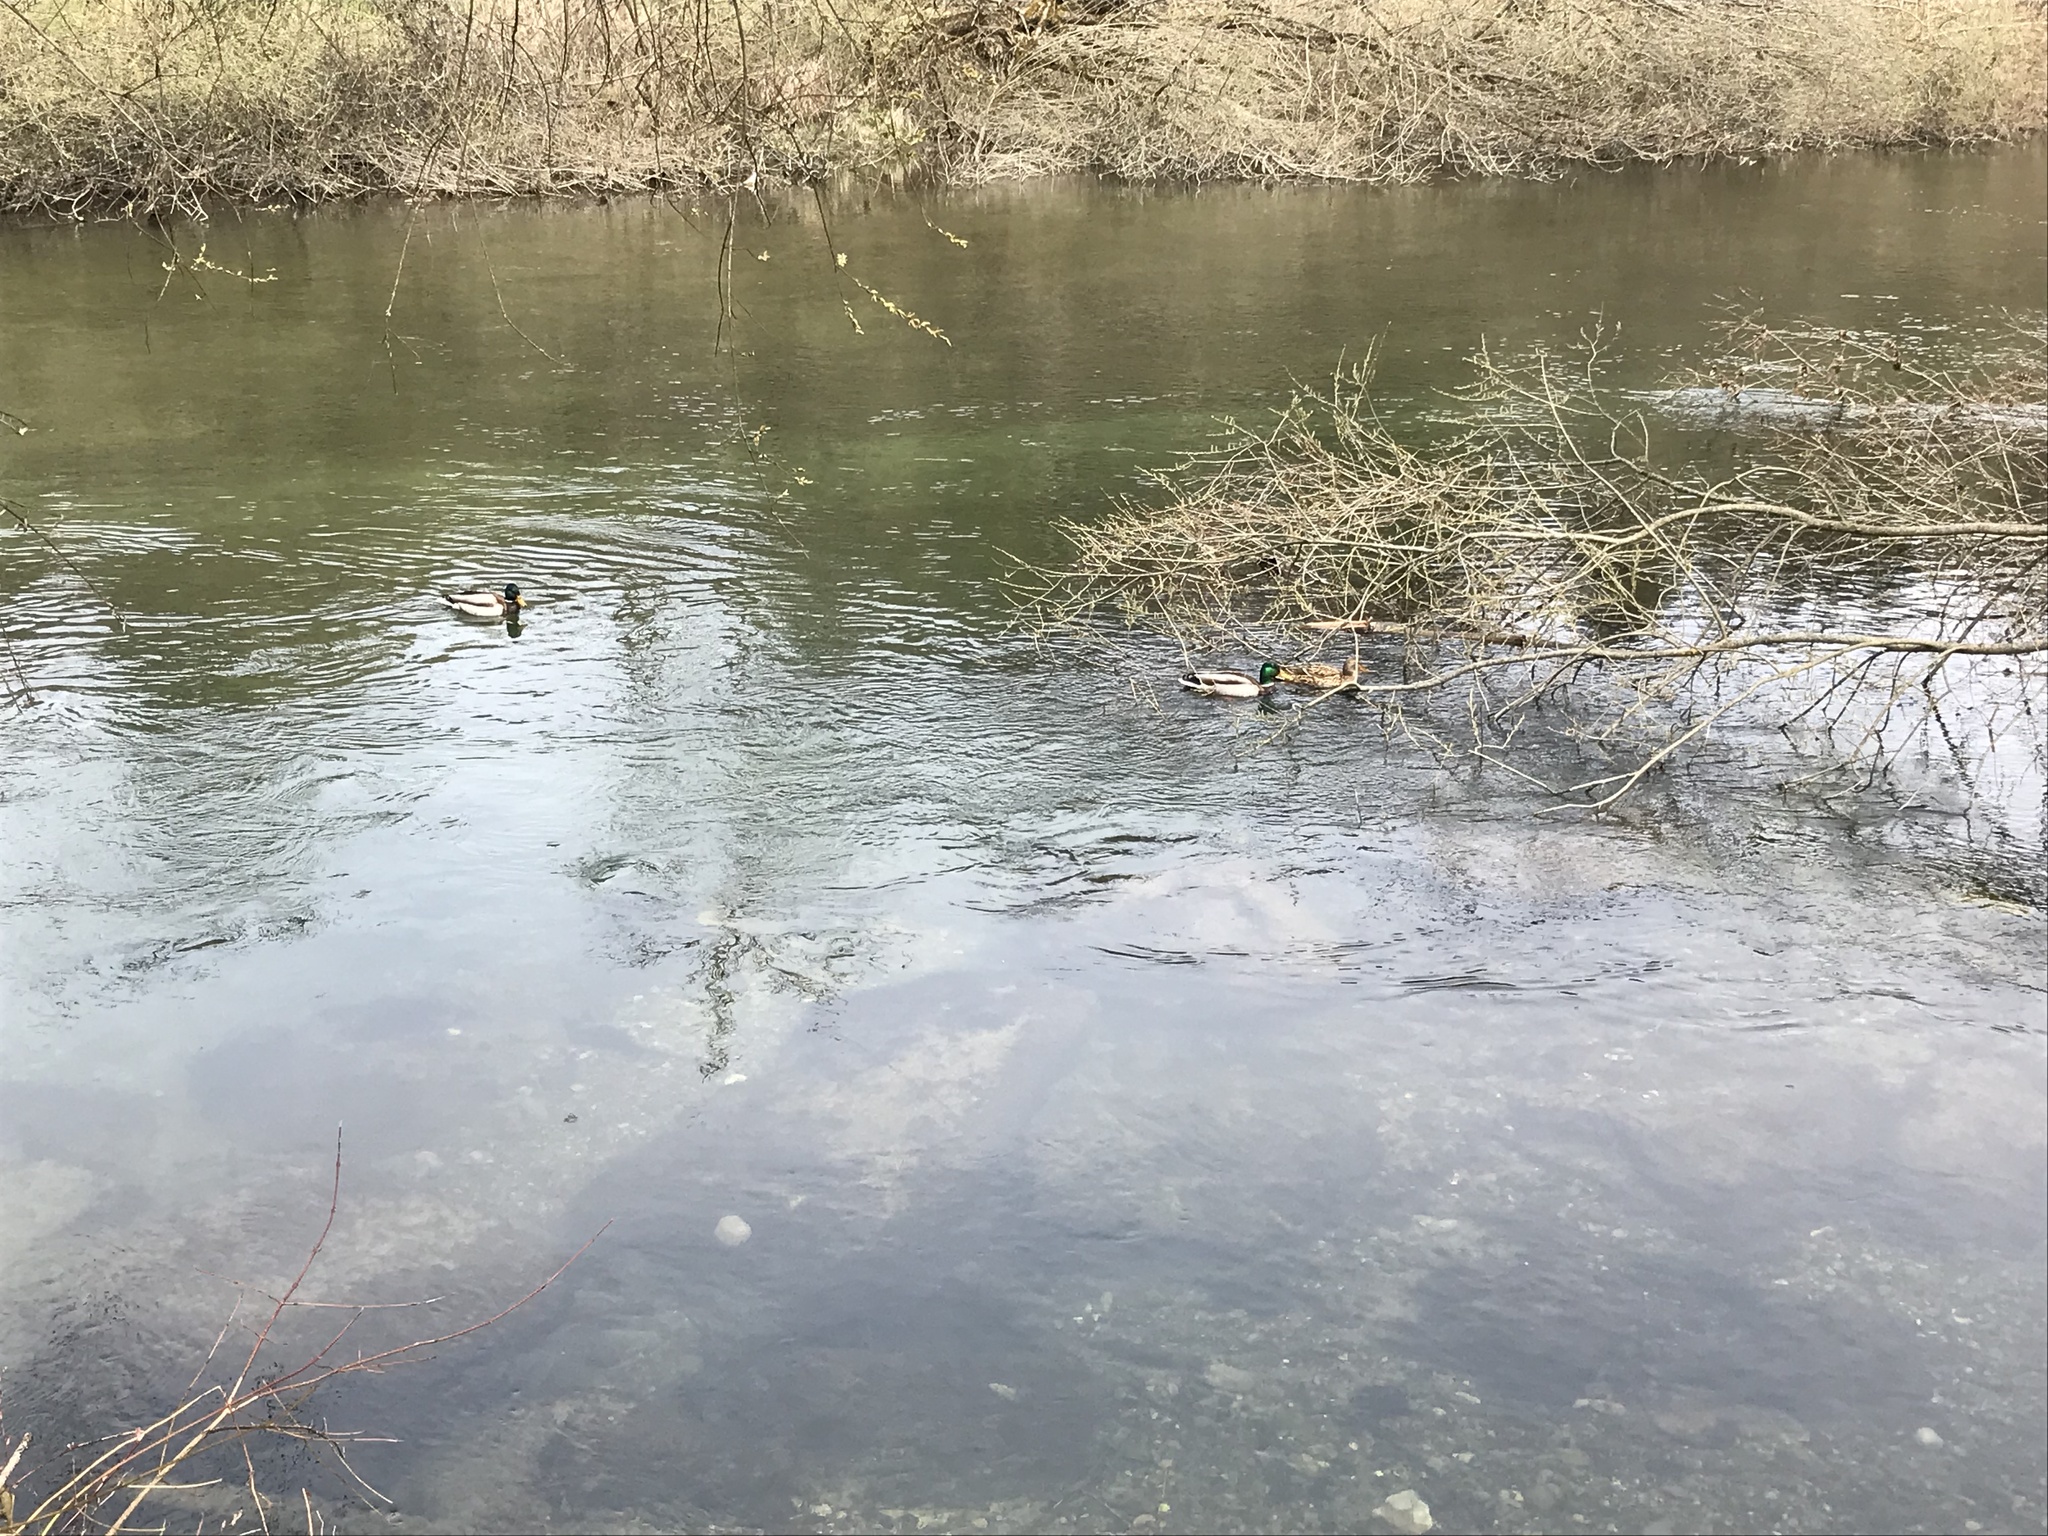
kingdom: Animalia
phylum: Chordata
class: Aves
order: Anseriformes
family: Anatidae
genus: Anas
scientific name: Anas platyrhynchos
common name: Mallard
